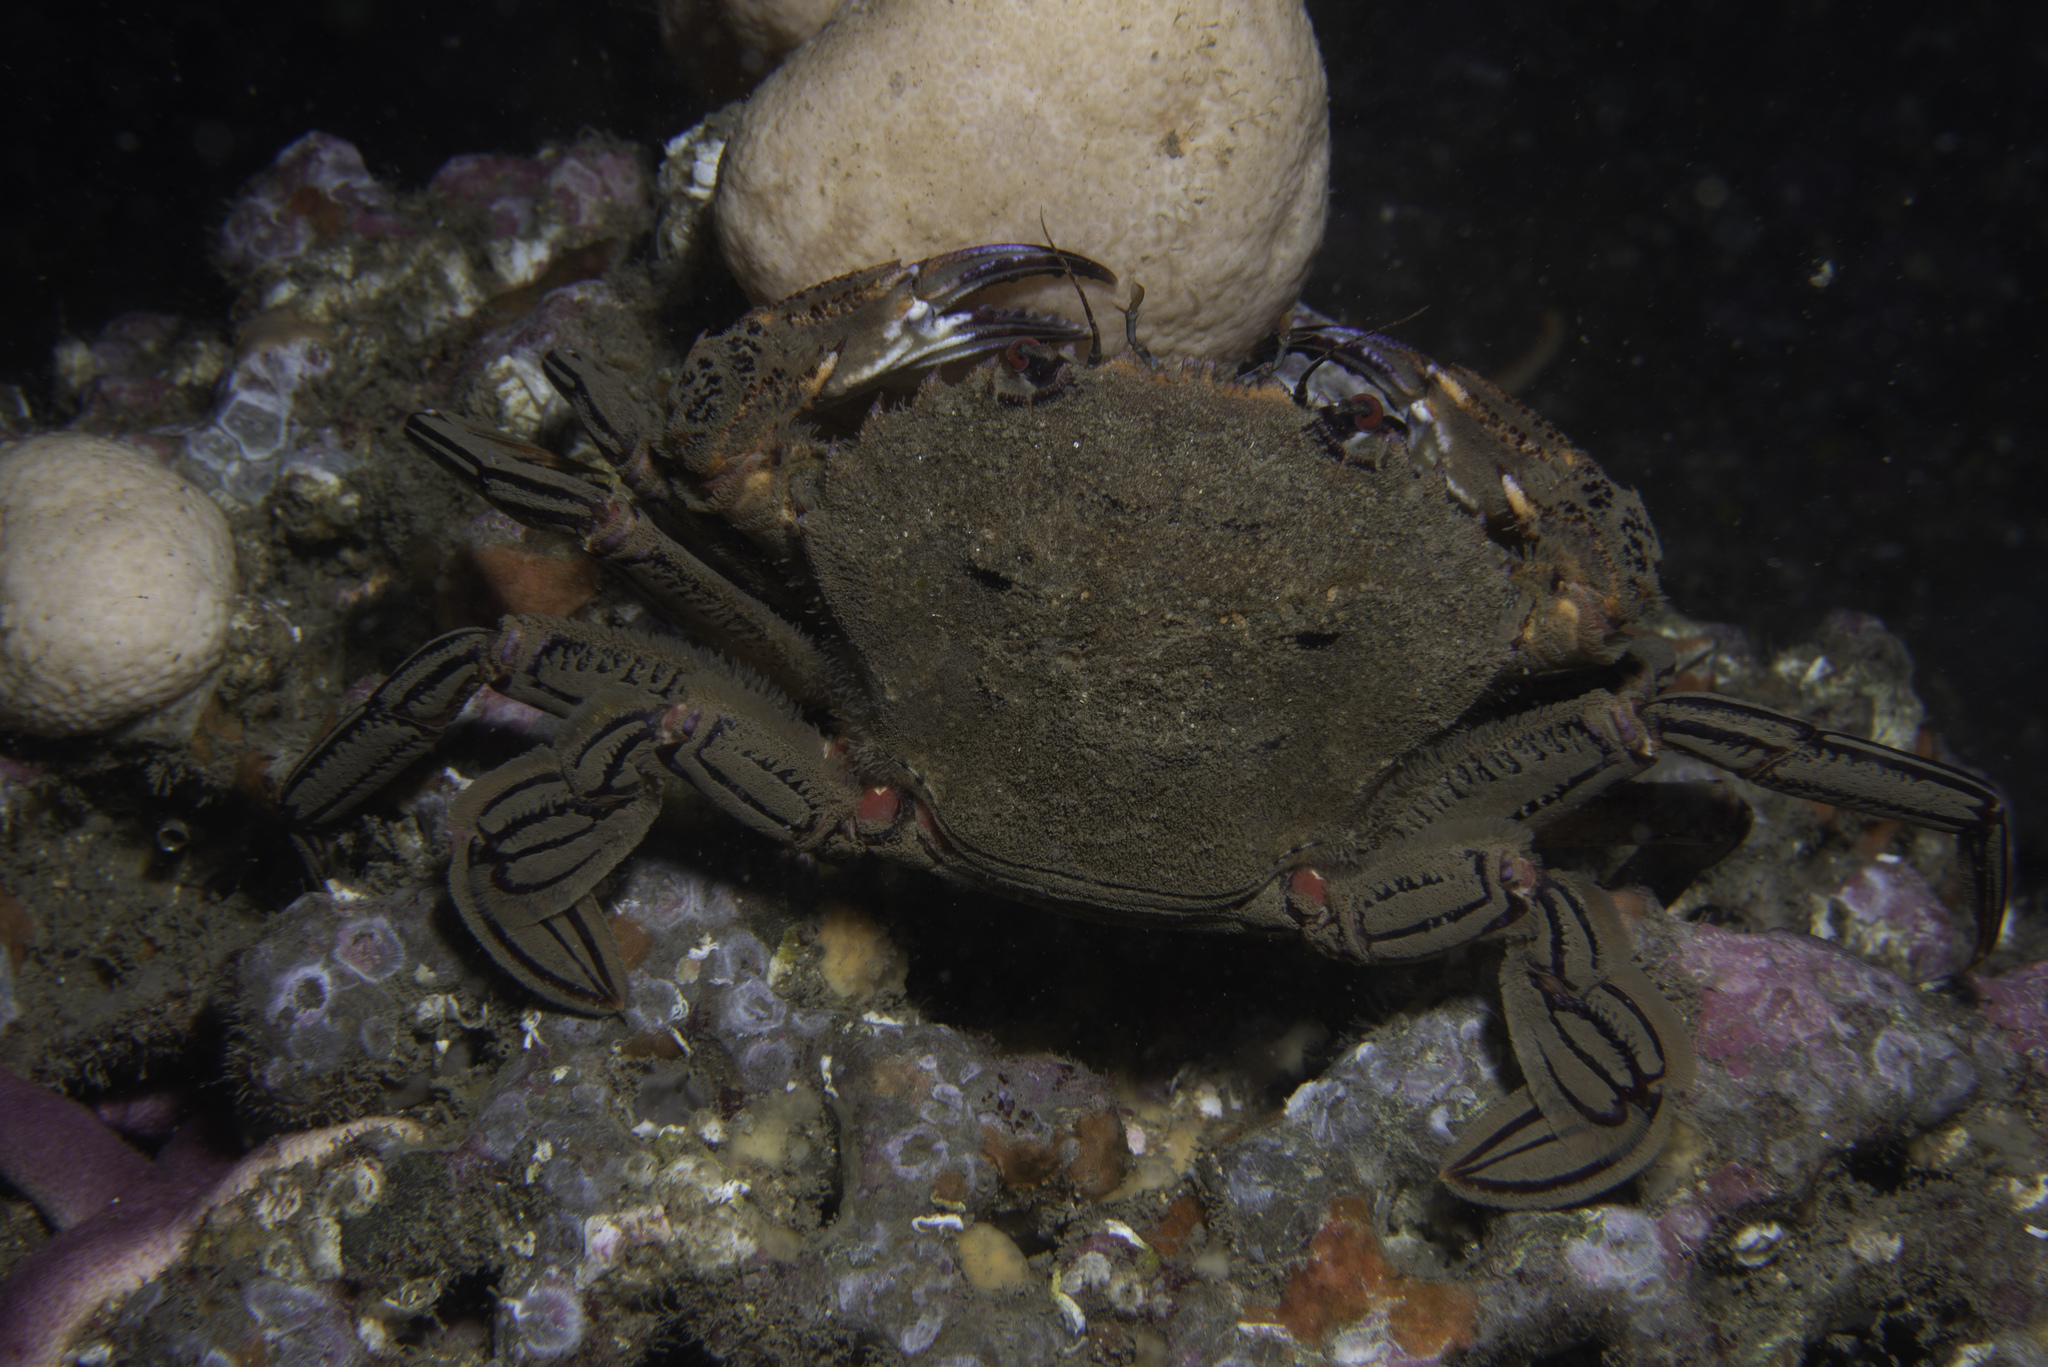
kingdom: Animalia
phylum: Arthropoda
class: Malacostraca
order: Decapoda
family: Polybiidae
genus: Necora
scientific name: Necora puber
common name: Velvet swimming crab
